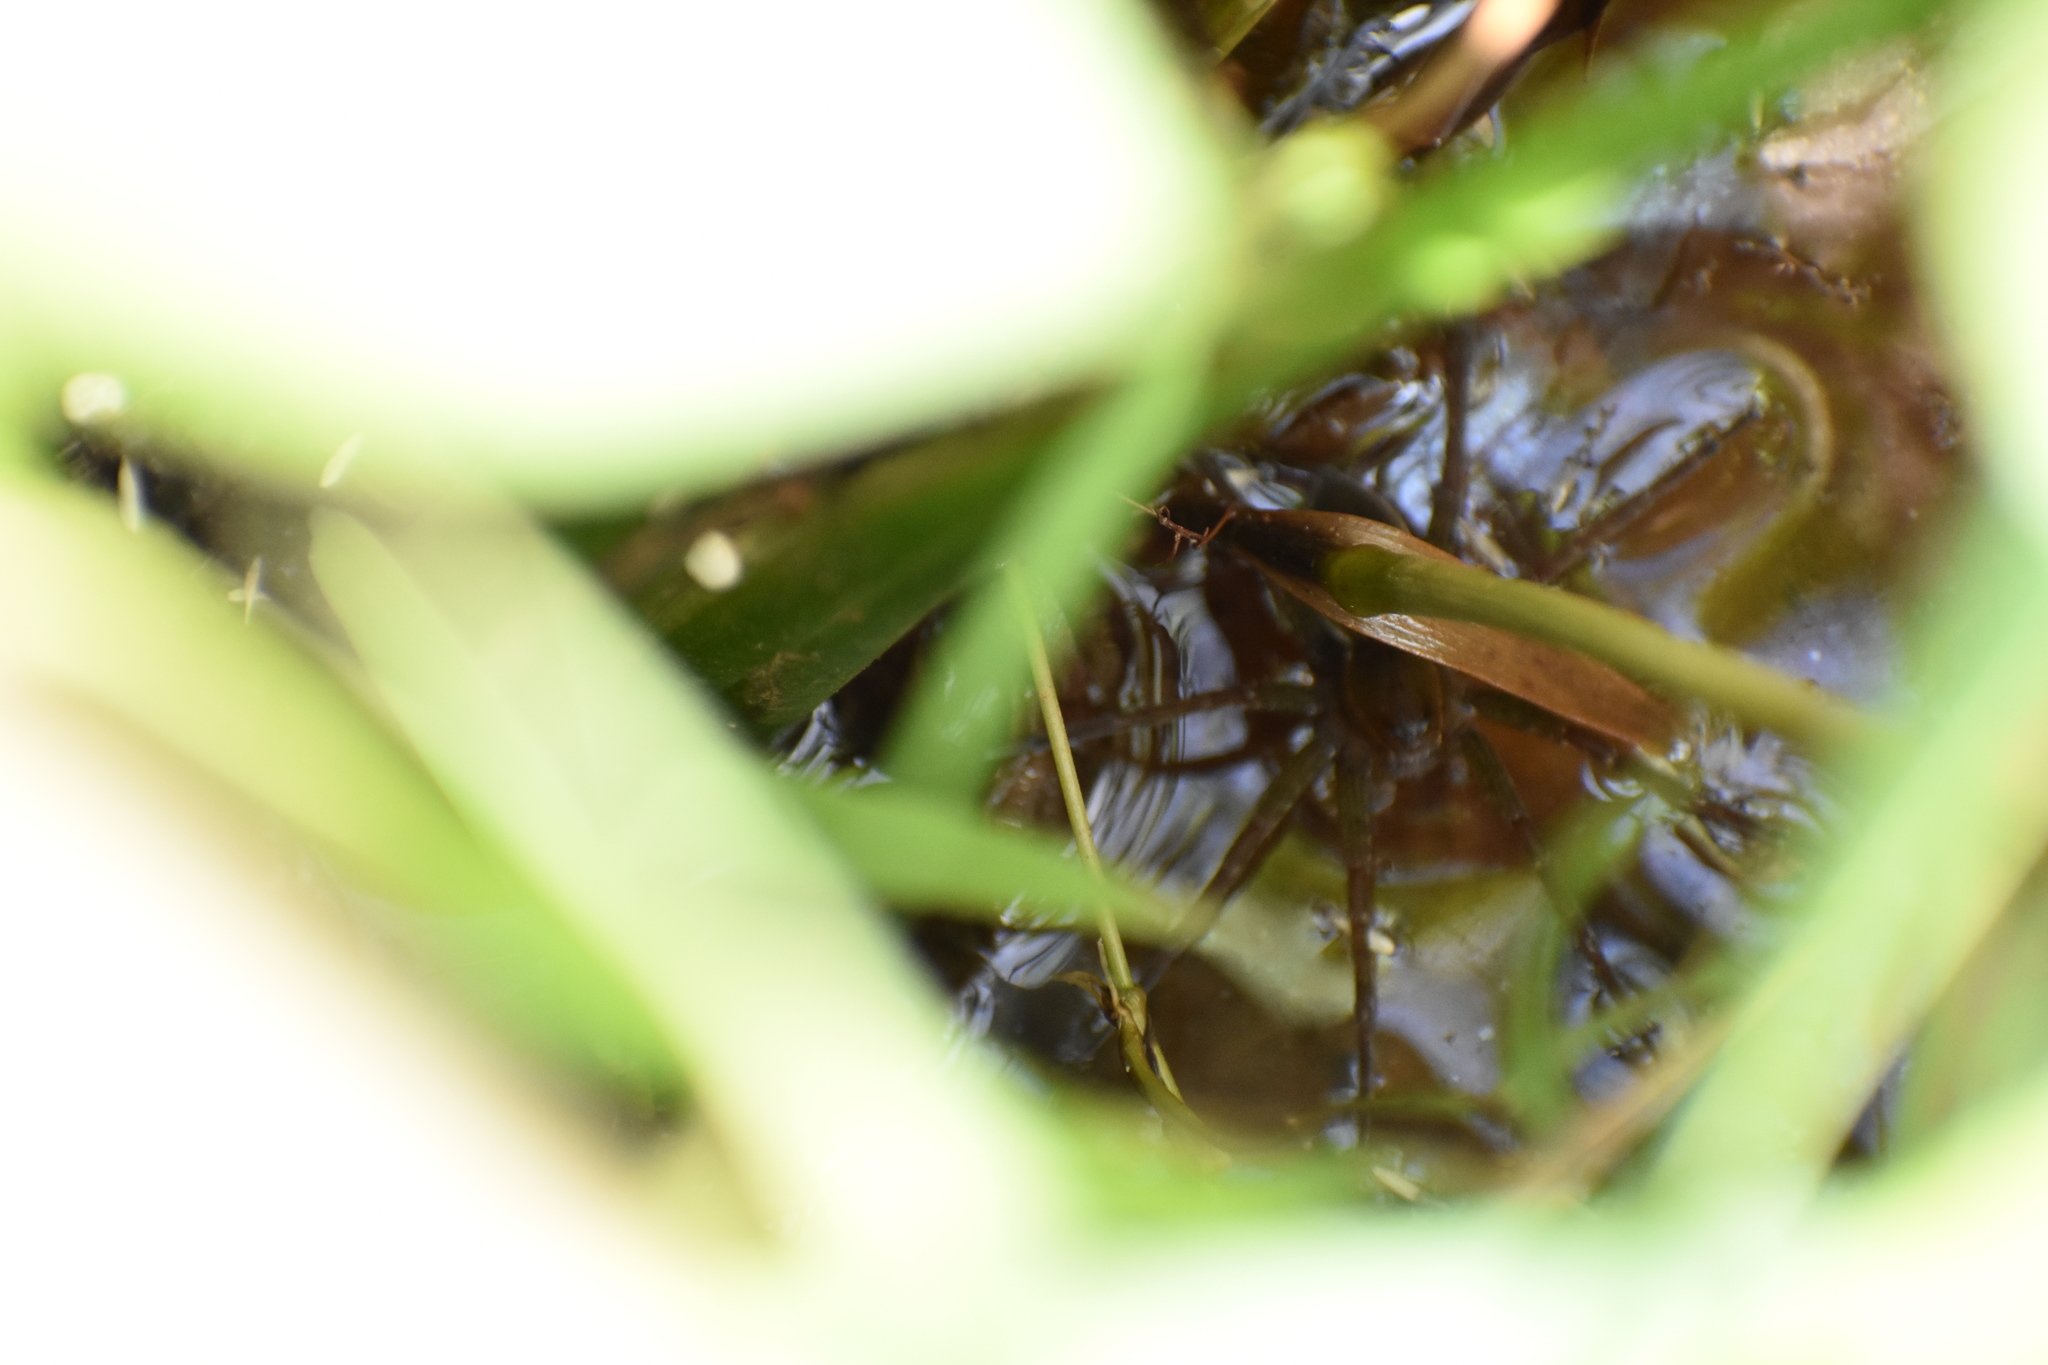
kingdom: Animalia
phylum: Arthropoda
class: Arachnida
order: Araneae
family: Pisauridae
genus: Dolomedes
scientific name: Dolomedes triton
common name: Six-spotted fishing spider
